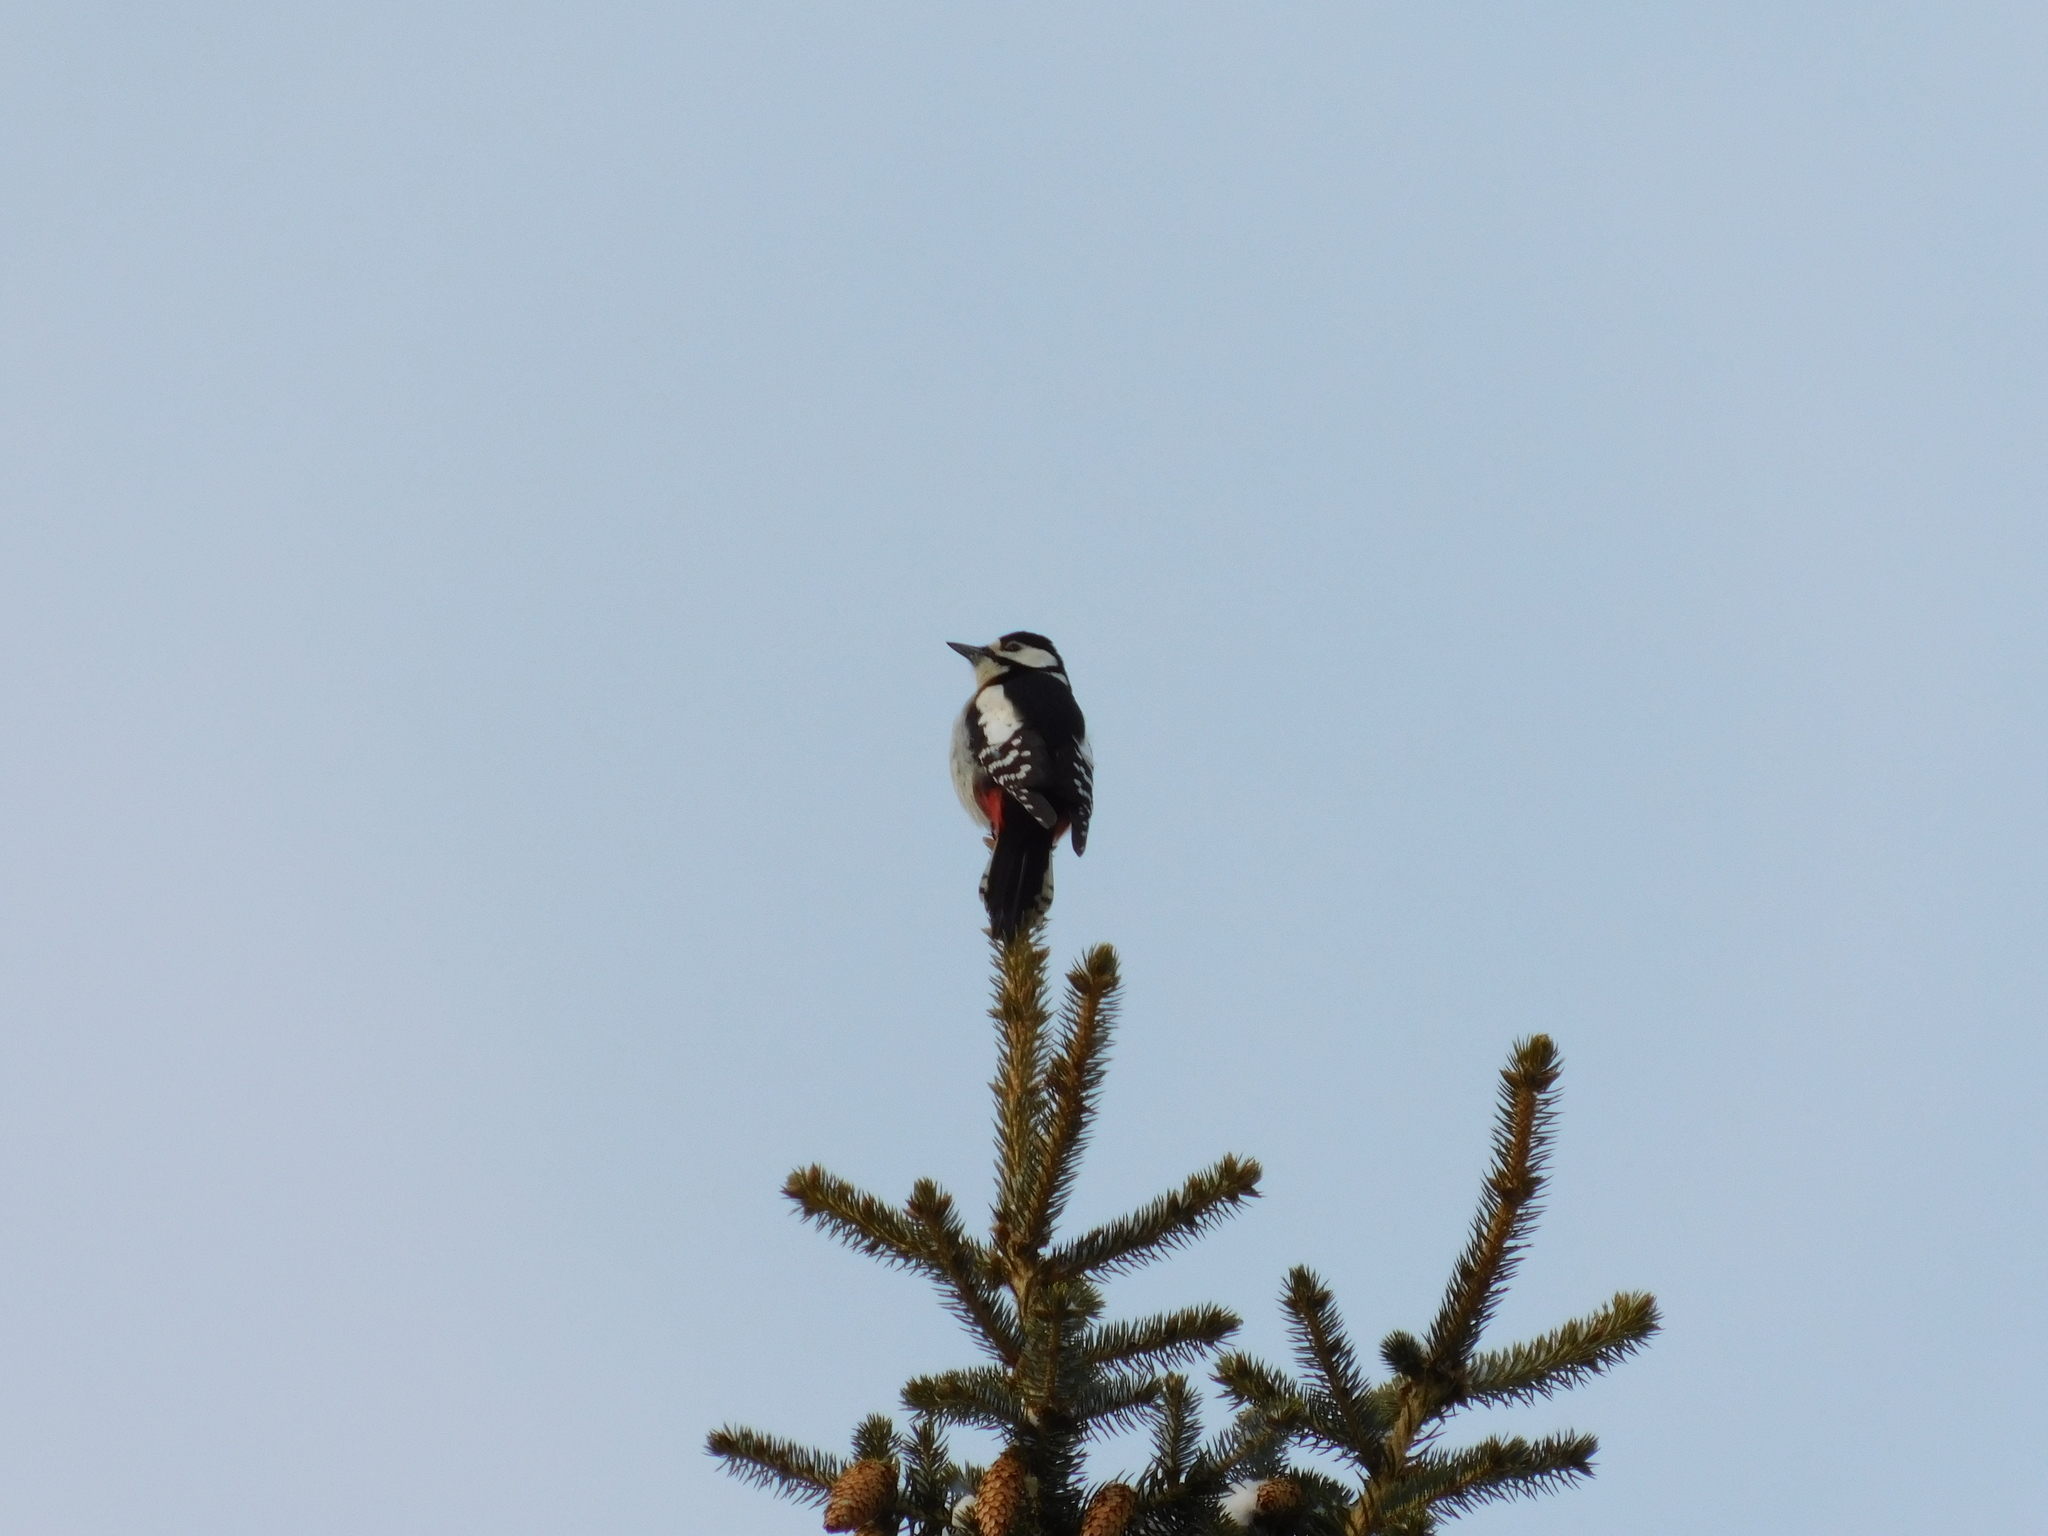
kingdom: Animalia
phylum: Chordata
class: Aves
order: Piciformes
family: Picidae
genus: Dendrocopos
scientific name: Dendrocopos major
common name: Great spotted woodpecker
